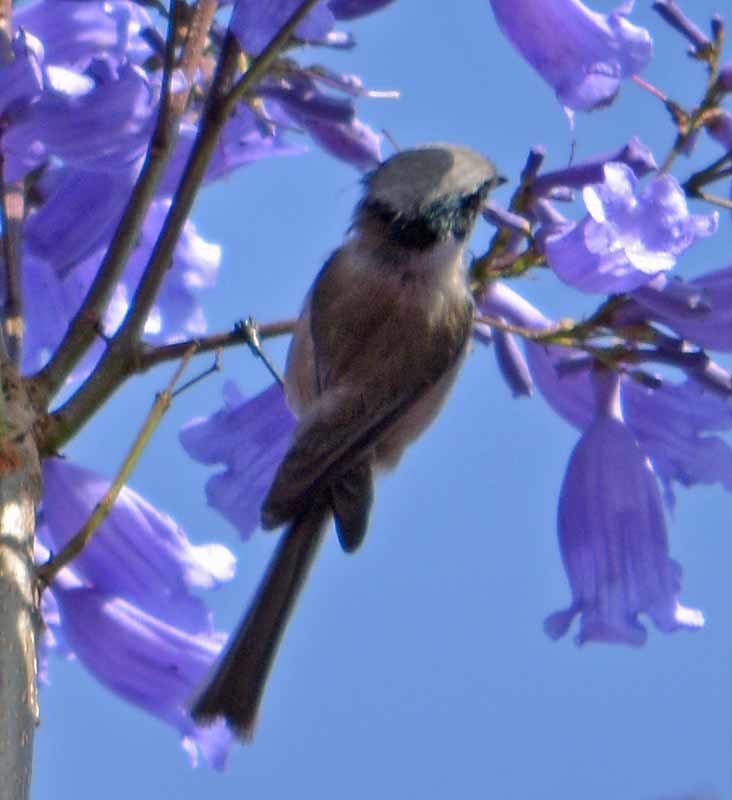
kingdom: Animalia
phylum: Chordata
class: Aves
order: Passeriformes
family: Aegithalidae
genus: Psaltriparus
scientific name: Psaltriparus minimus
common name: American bushtit
